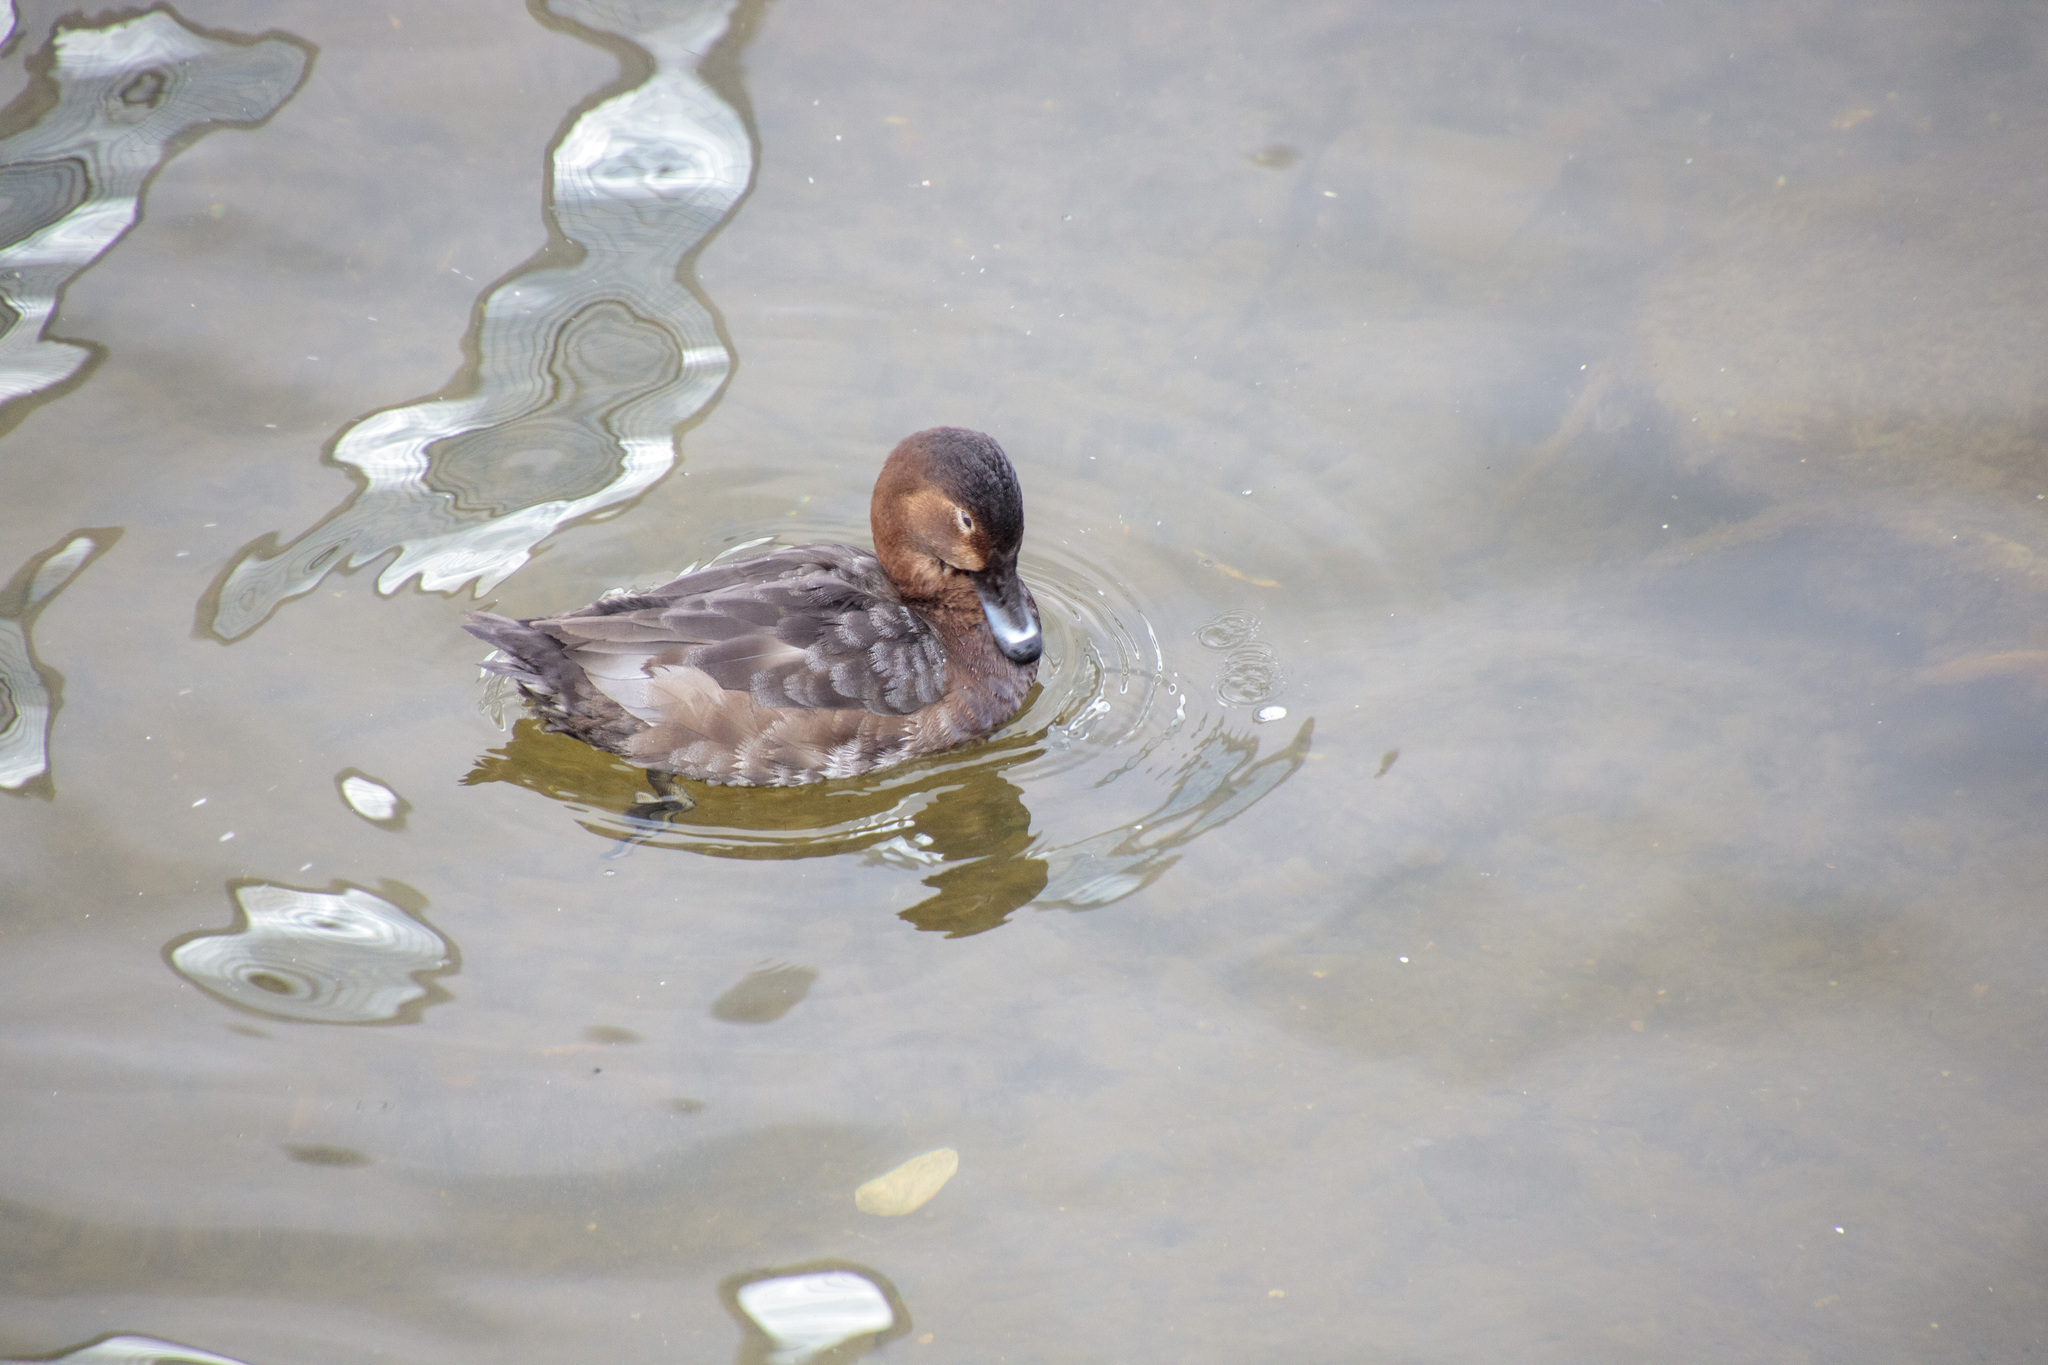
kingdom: Animalia
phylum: Chordata
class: Aves
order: Anseriformes
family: Anatidae
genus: Aythya
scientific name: Aythya ferina
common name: Common pochard
